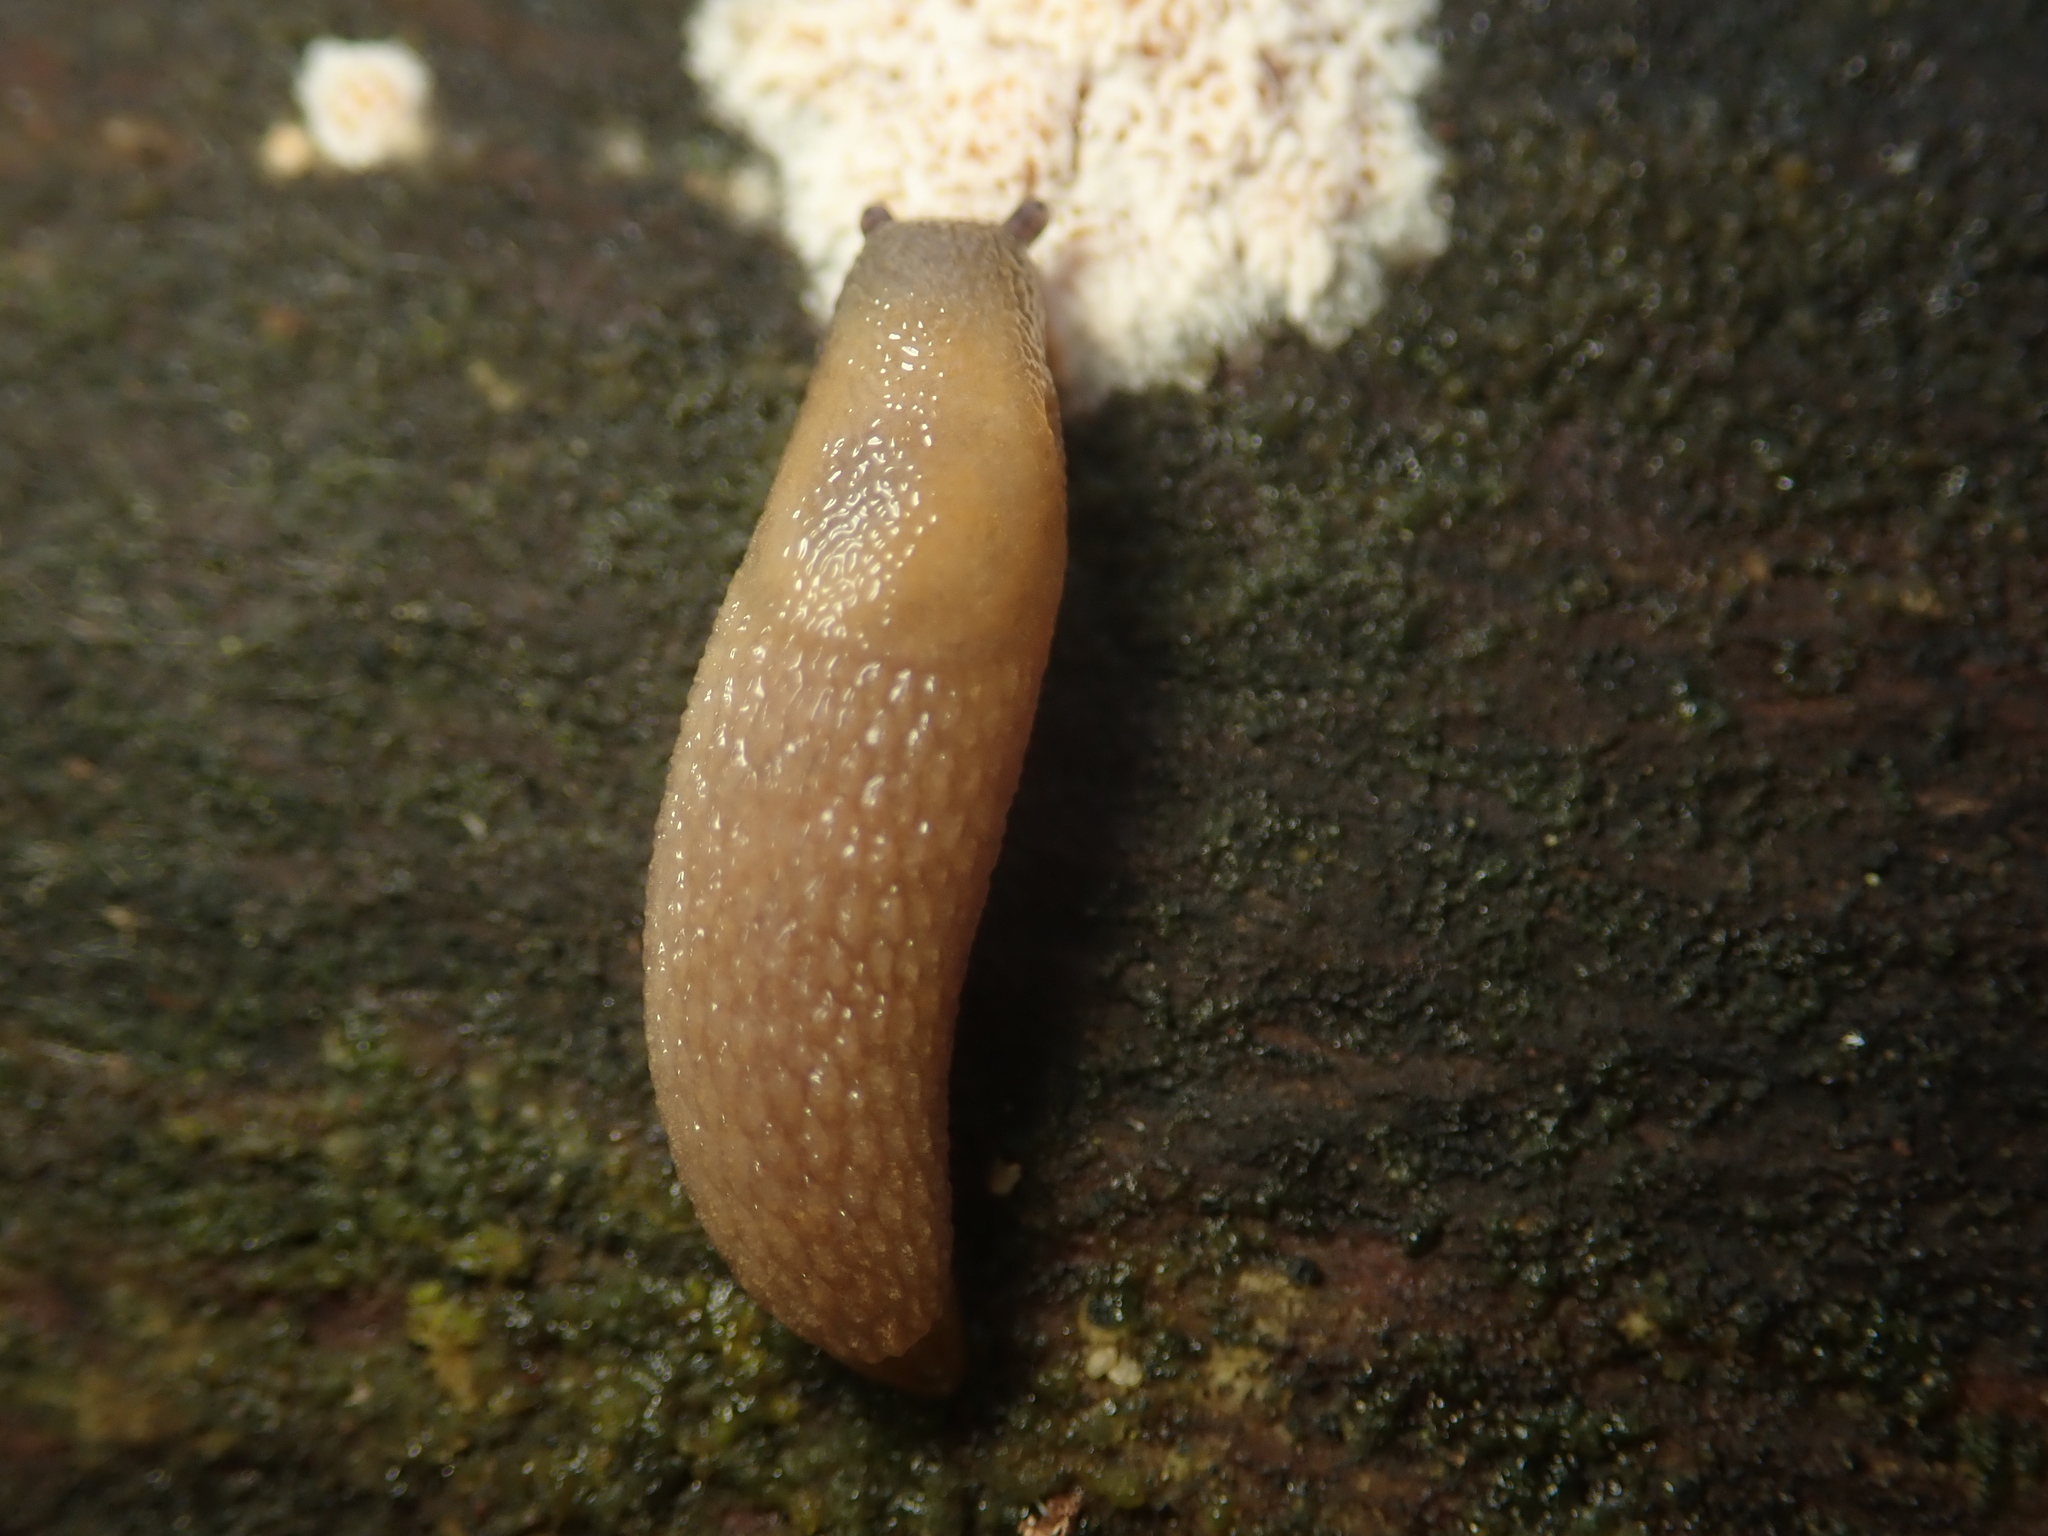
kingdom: Animalia
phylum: Mollusca
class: Gastropoda
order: Stylommatophora
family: Arionidae
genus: Arion
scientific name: Arion intermedius
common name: Hedgehog slug
